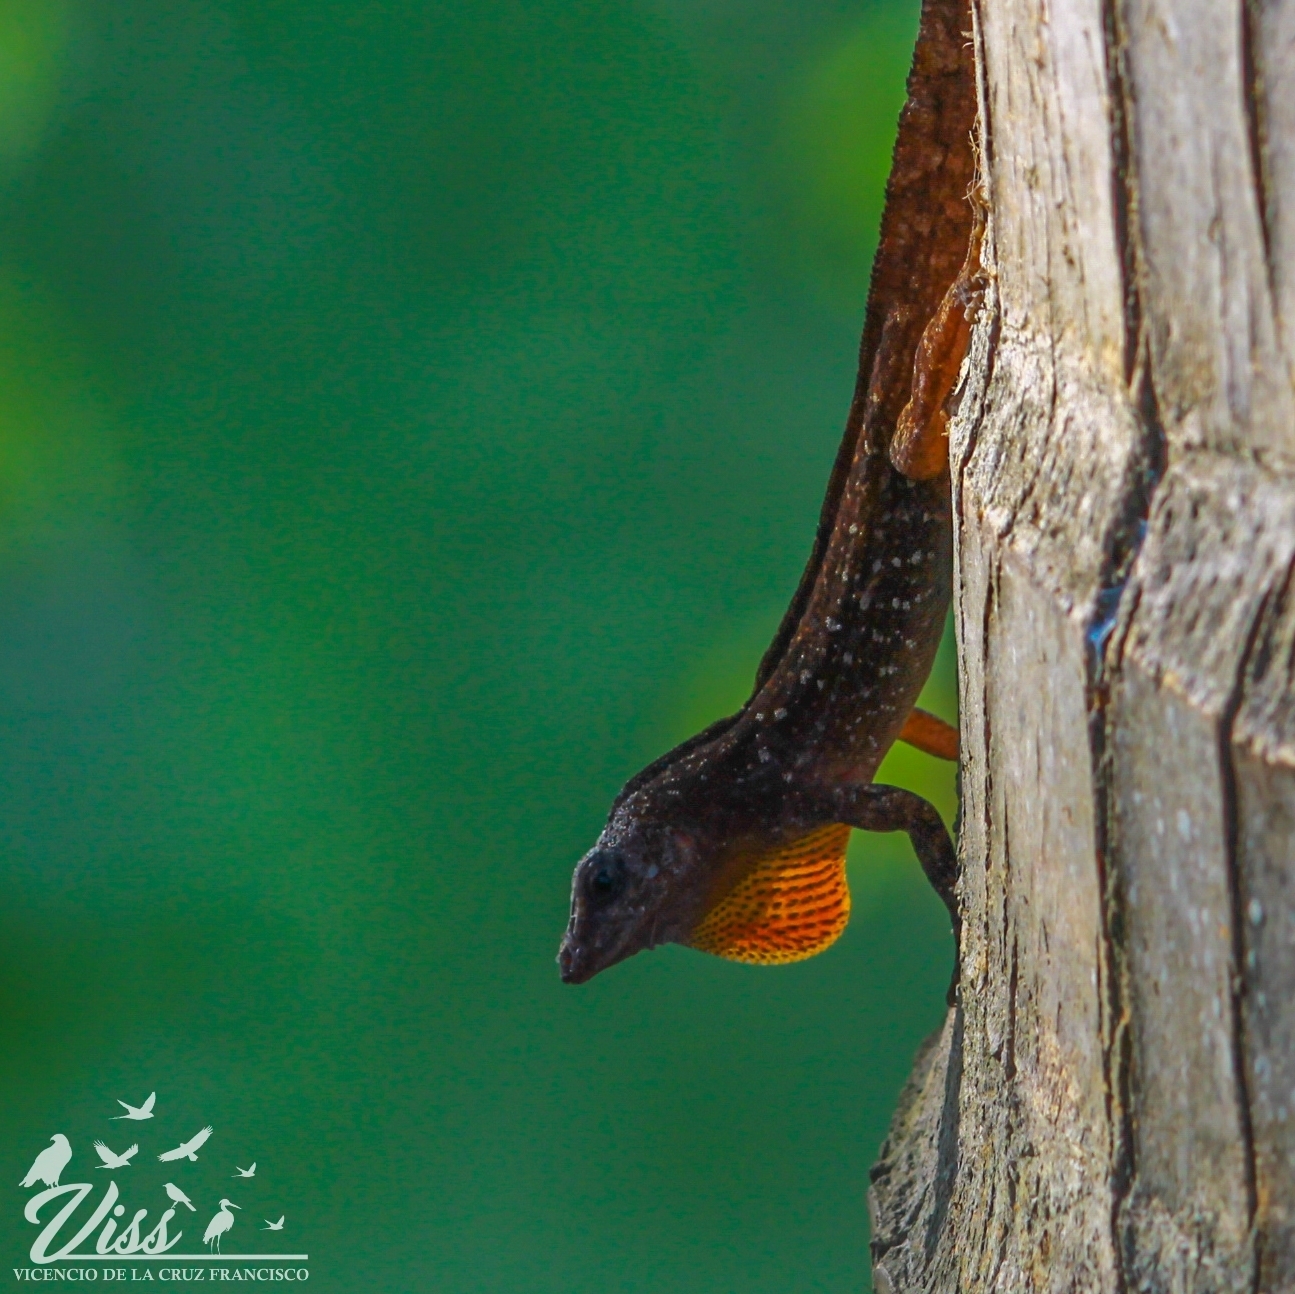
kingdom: Animalia
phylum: Chordata
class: Squamata
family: Dactyloidae
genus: Anolis
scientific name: Anolis sagrei
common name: Brown anole
